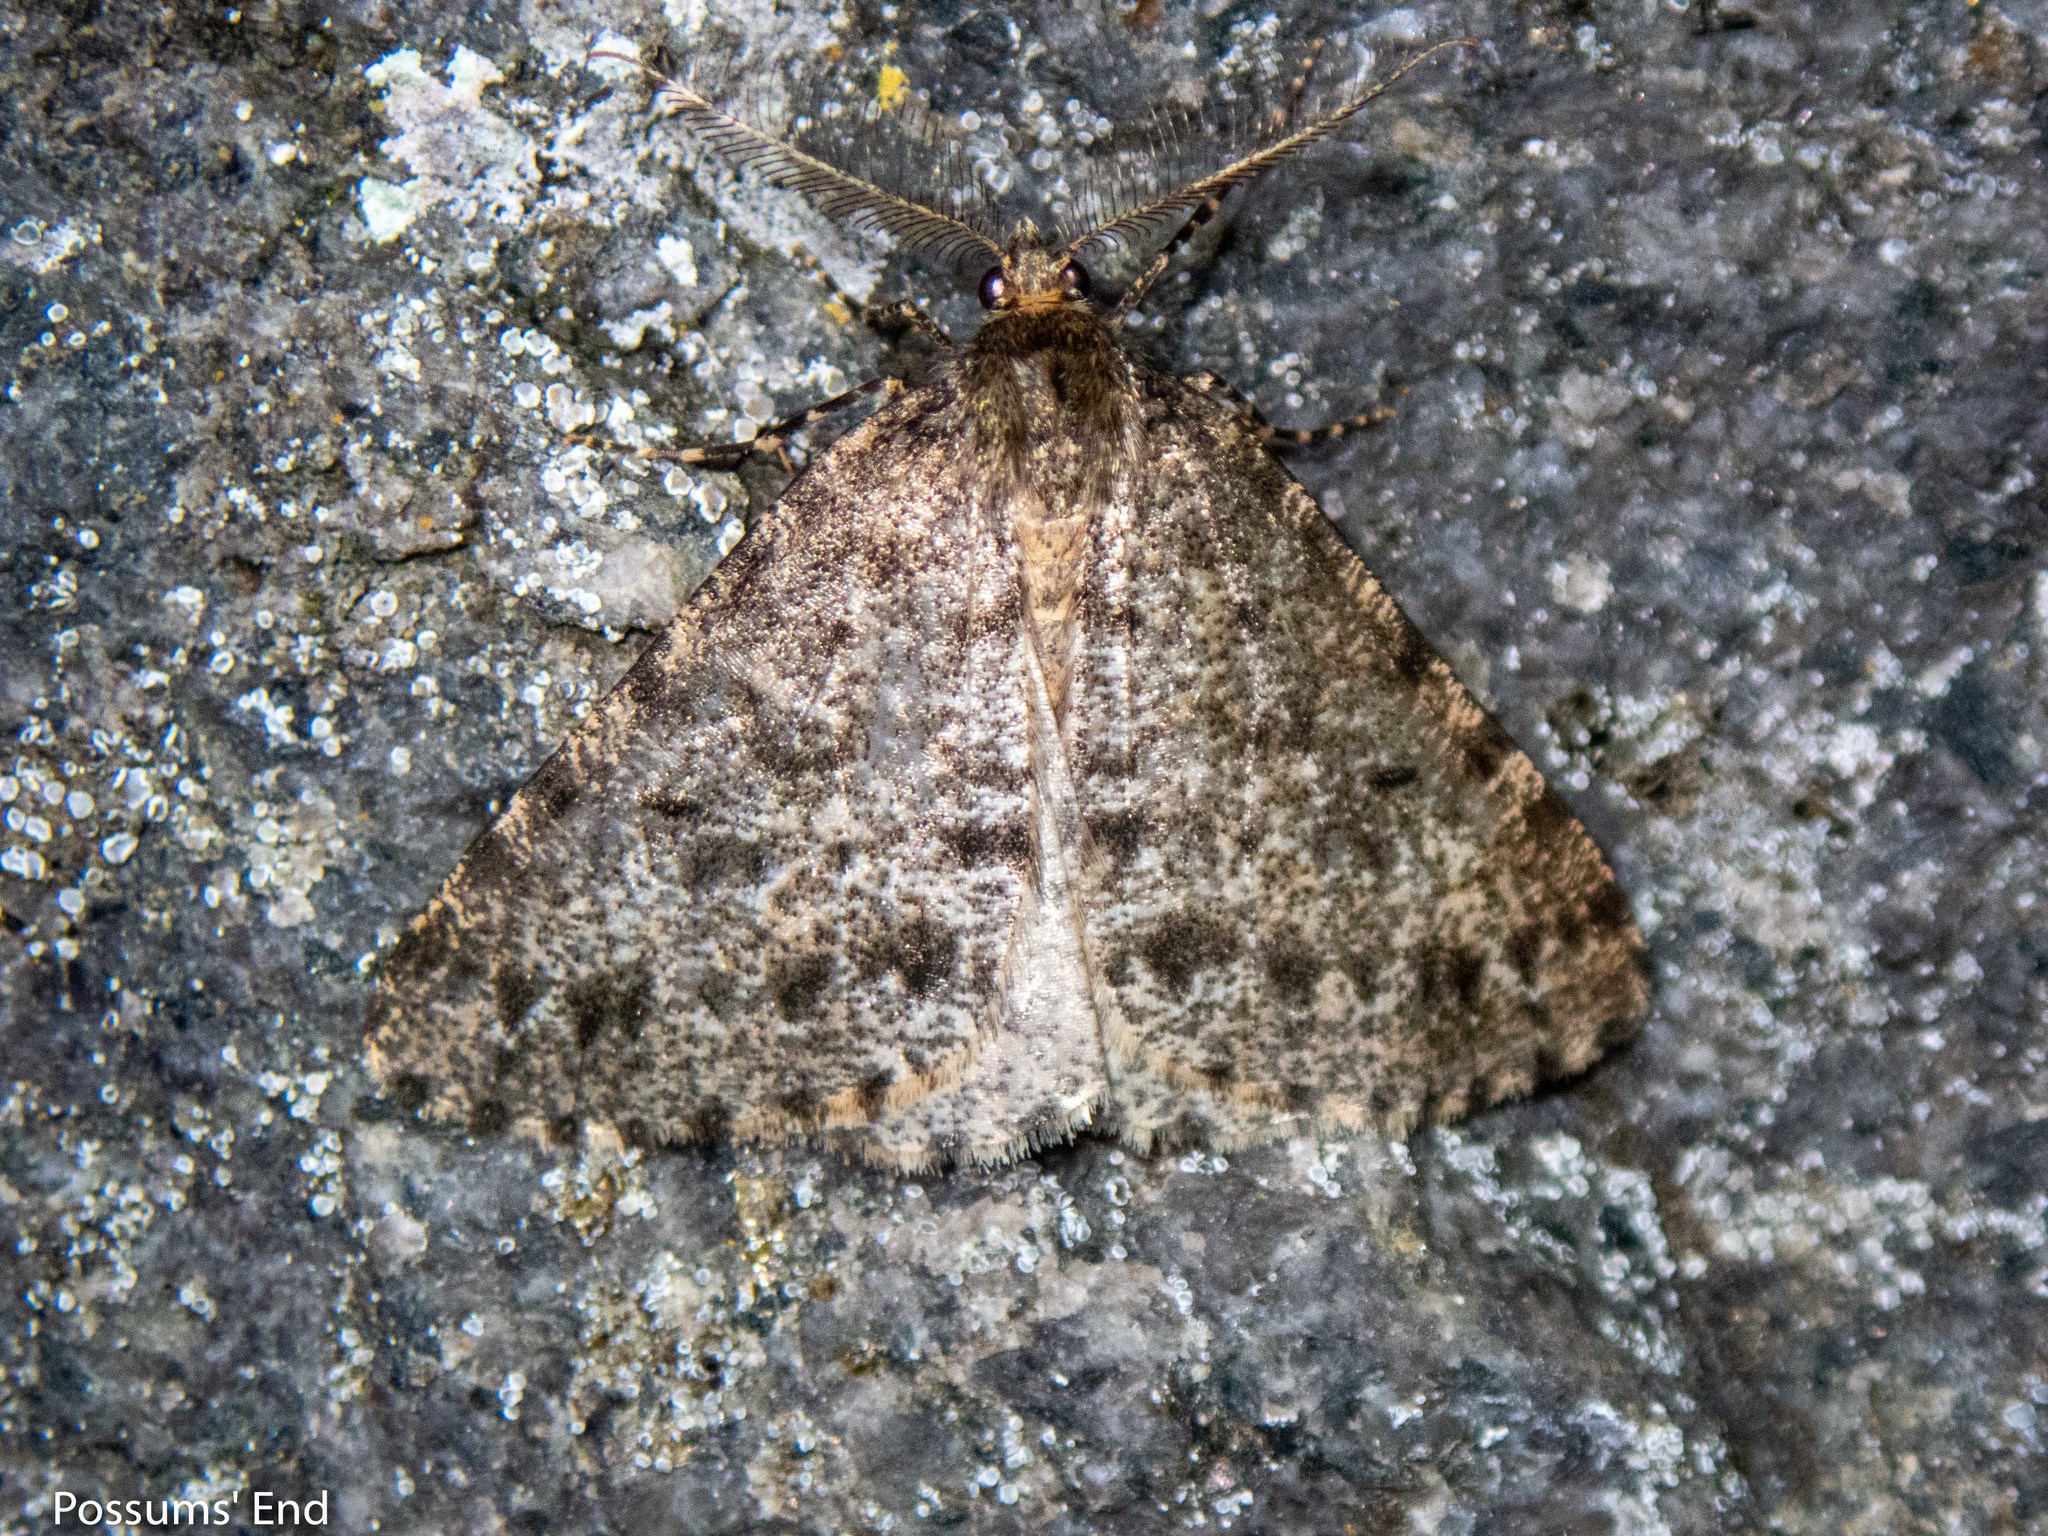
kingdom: Animalia
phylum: Arthropoda
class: Insecta
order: Lepidoptera
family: Geometridae
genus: Pseudocoremia
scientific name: Pseudocoremia terrena
